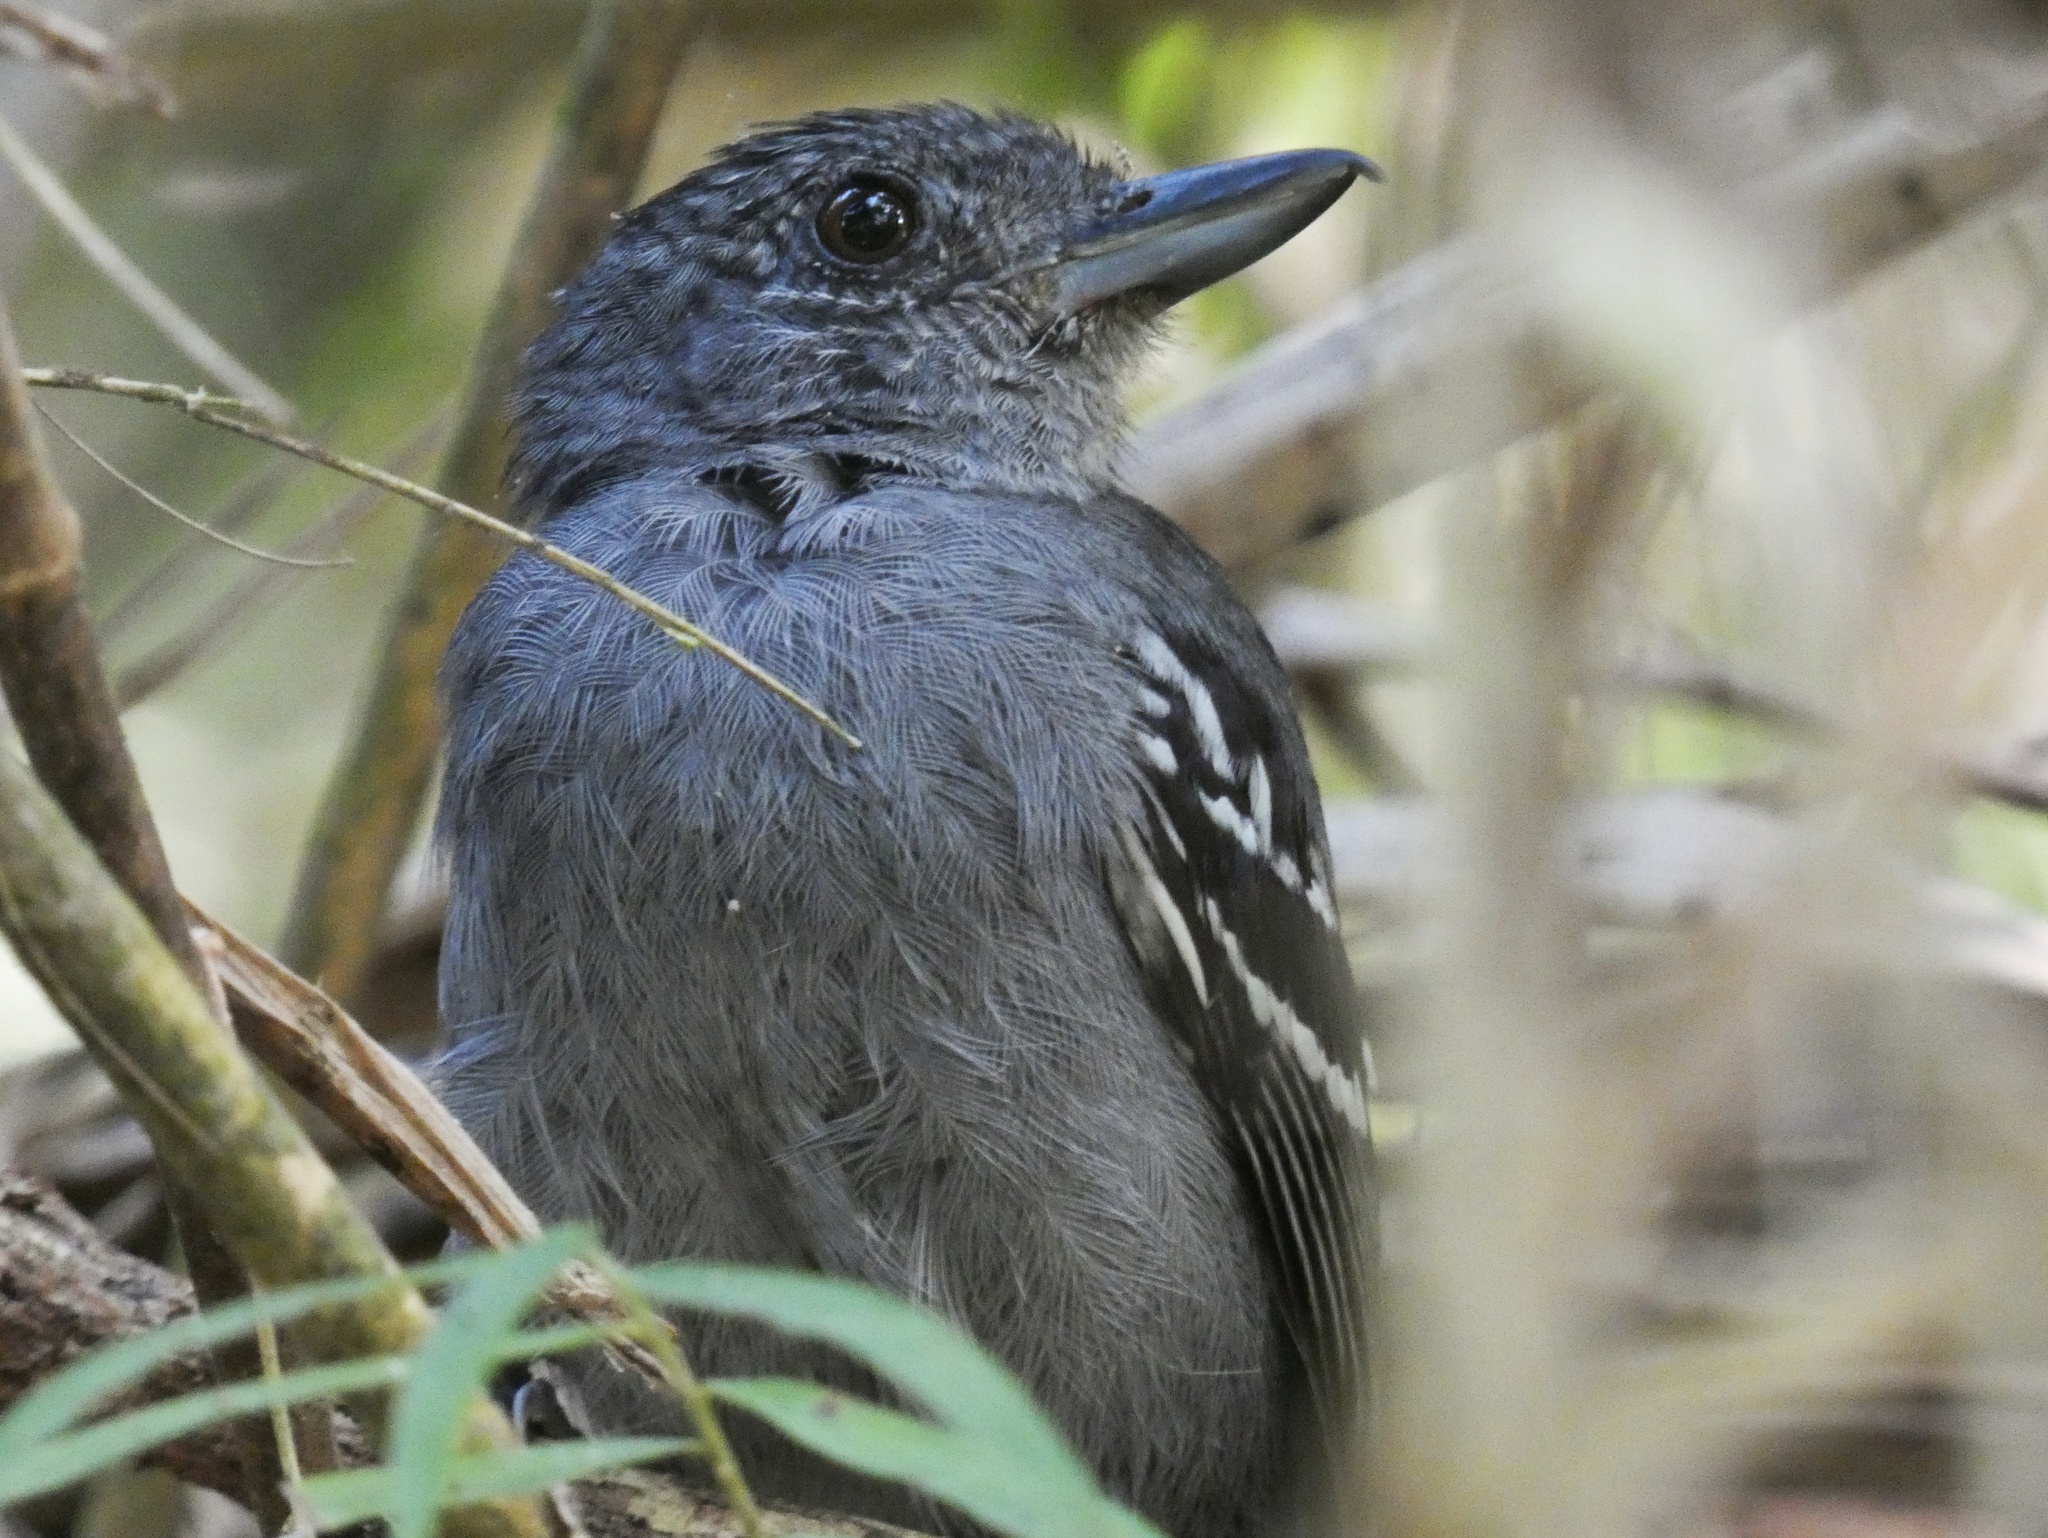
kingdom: Animalia
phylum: Chordata
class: Aves
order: Passeriformes
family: Thamnophilidae
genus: Thamnophilus
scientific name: Thamnophilus atrinucha
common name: Black-crowned antshrike
